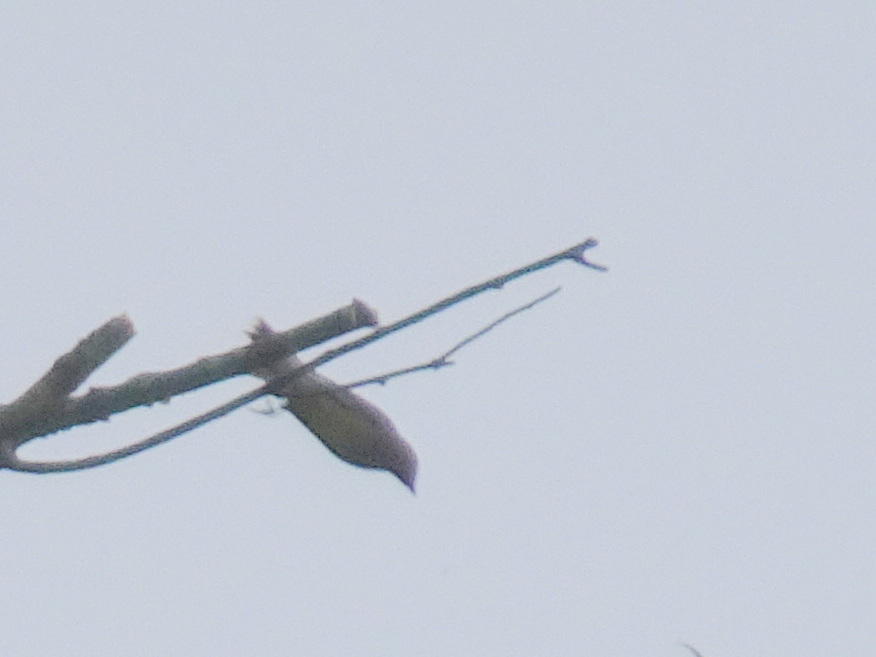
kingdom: Animalia
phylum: Chordata
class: Aves
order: Passeriformes
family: Bombycillidae
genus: Bombycilla
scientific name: Bombycilla cedrorum
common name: Cedar waxwing
